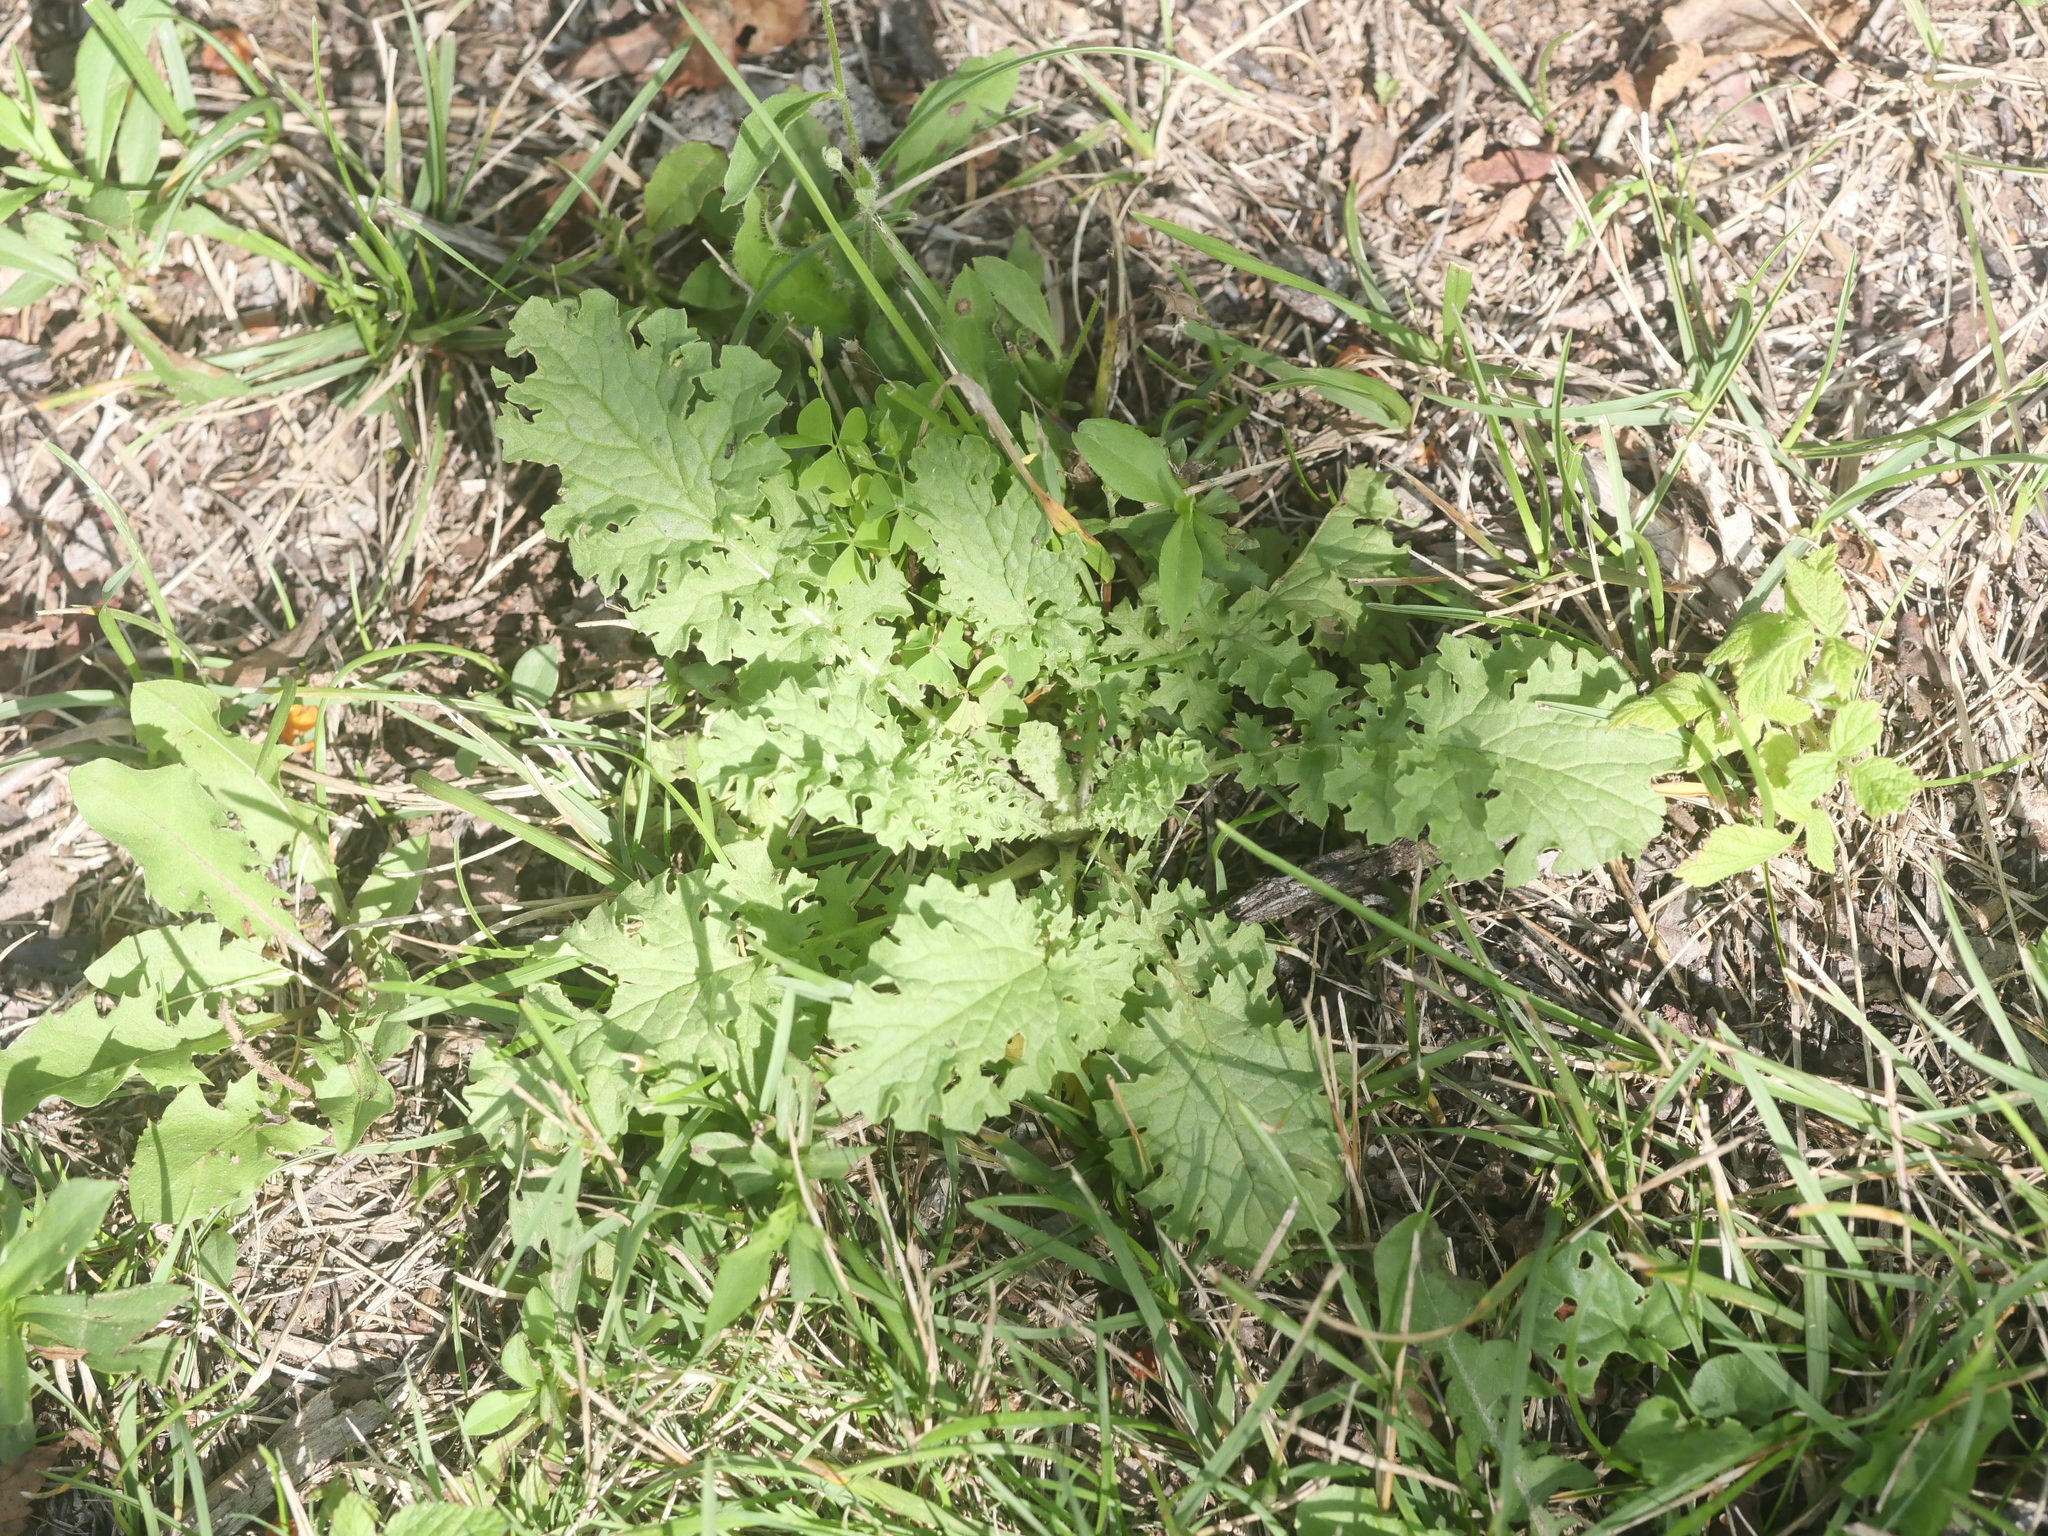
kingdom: Plantae
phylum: Tracheophyta
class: Magnoliopsida
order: Asterales
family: Asteraceae
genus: Jacobaea
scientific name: Jacobaea vulgaris
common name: Stinking willie
